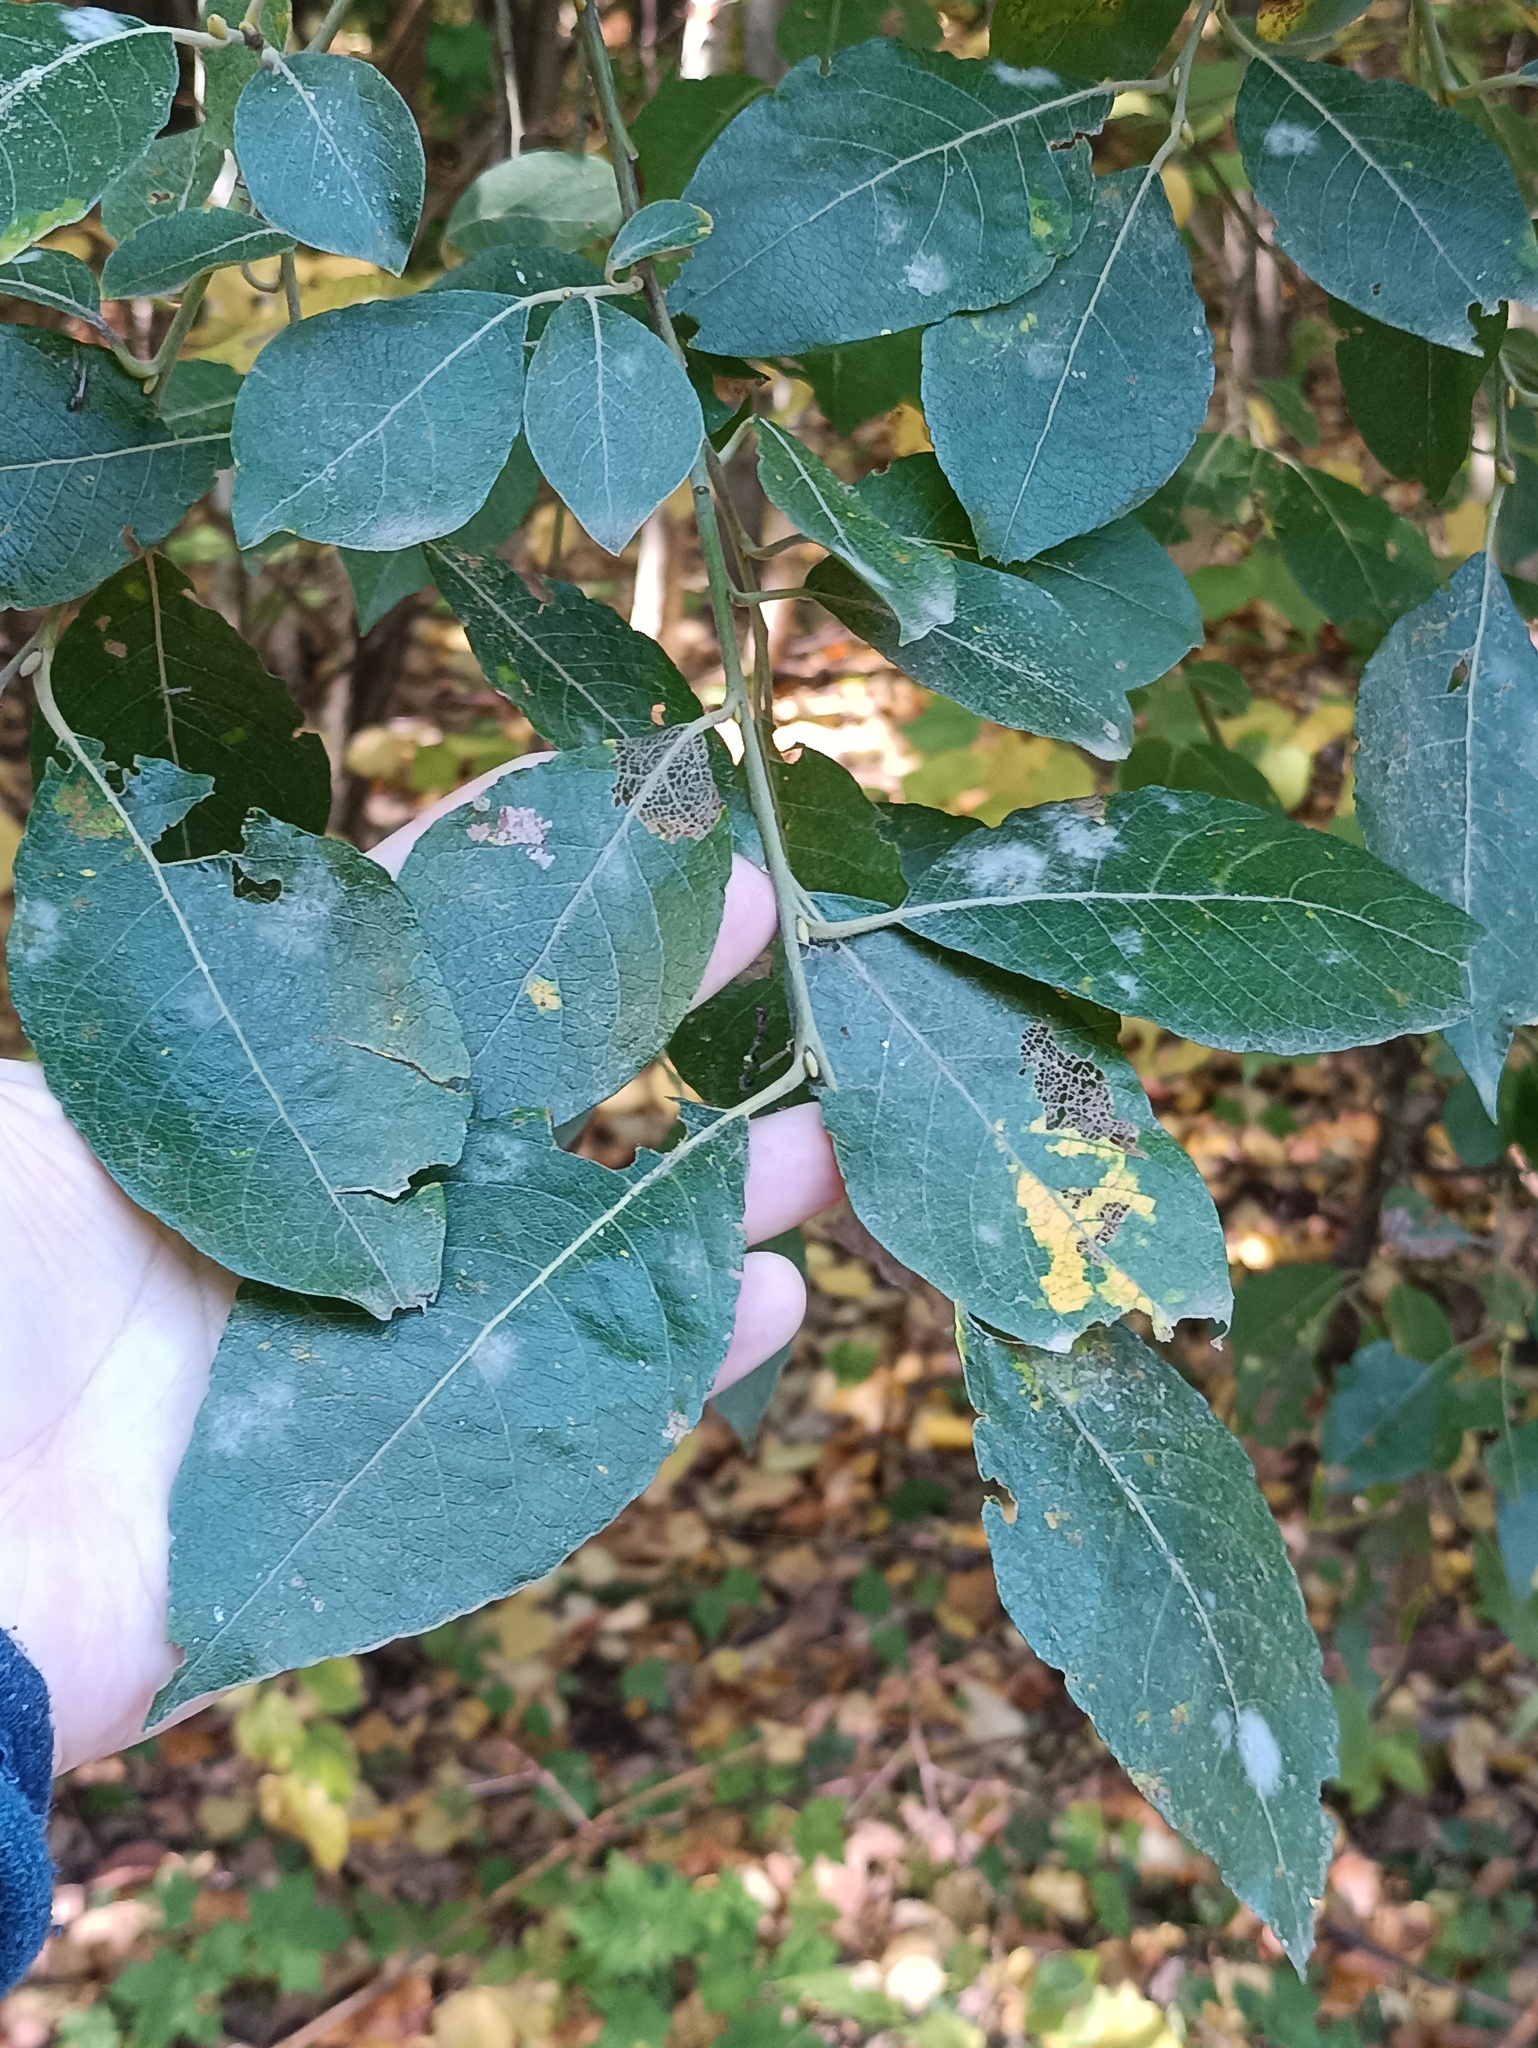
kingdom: Plantae
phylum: Tracheophyta
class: Magnoliopsida
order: Malpighiales
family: Salicaceae
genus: Salix
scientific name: Salix caprea
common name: Goat willow
